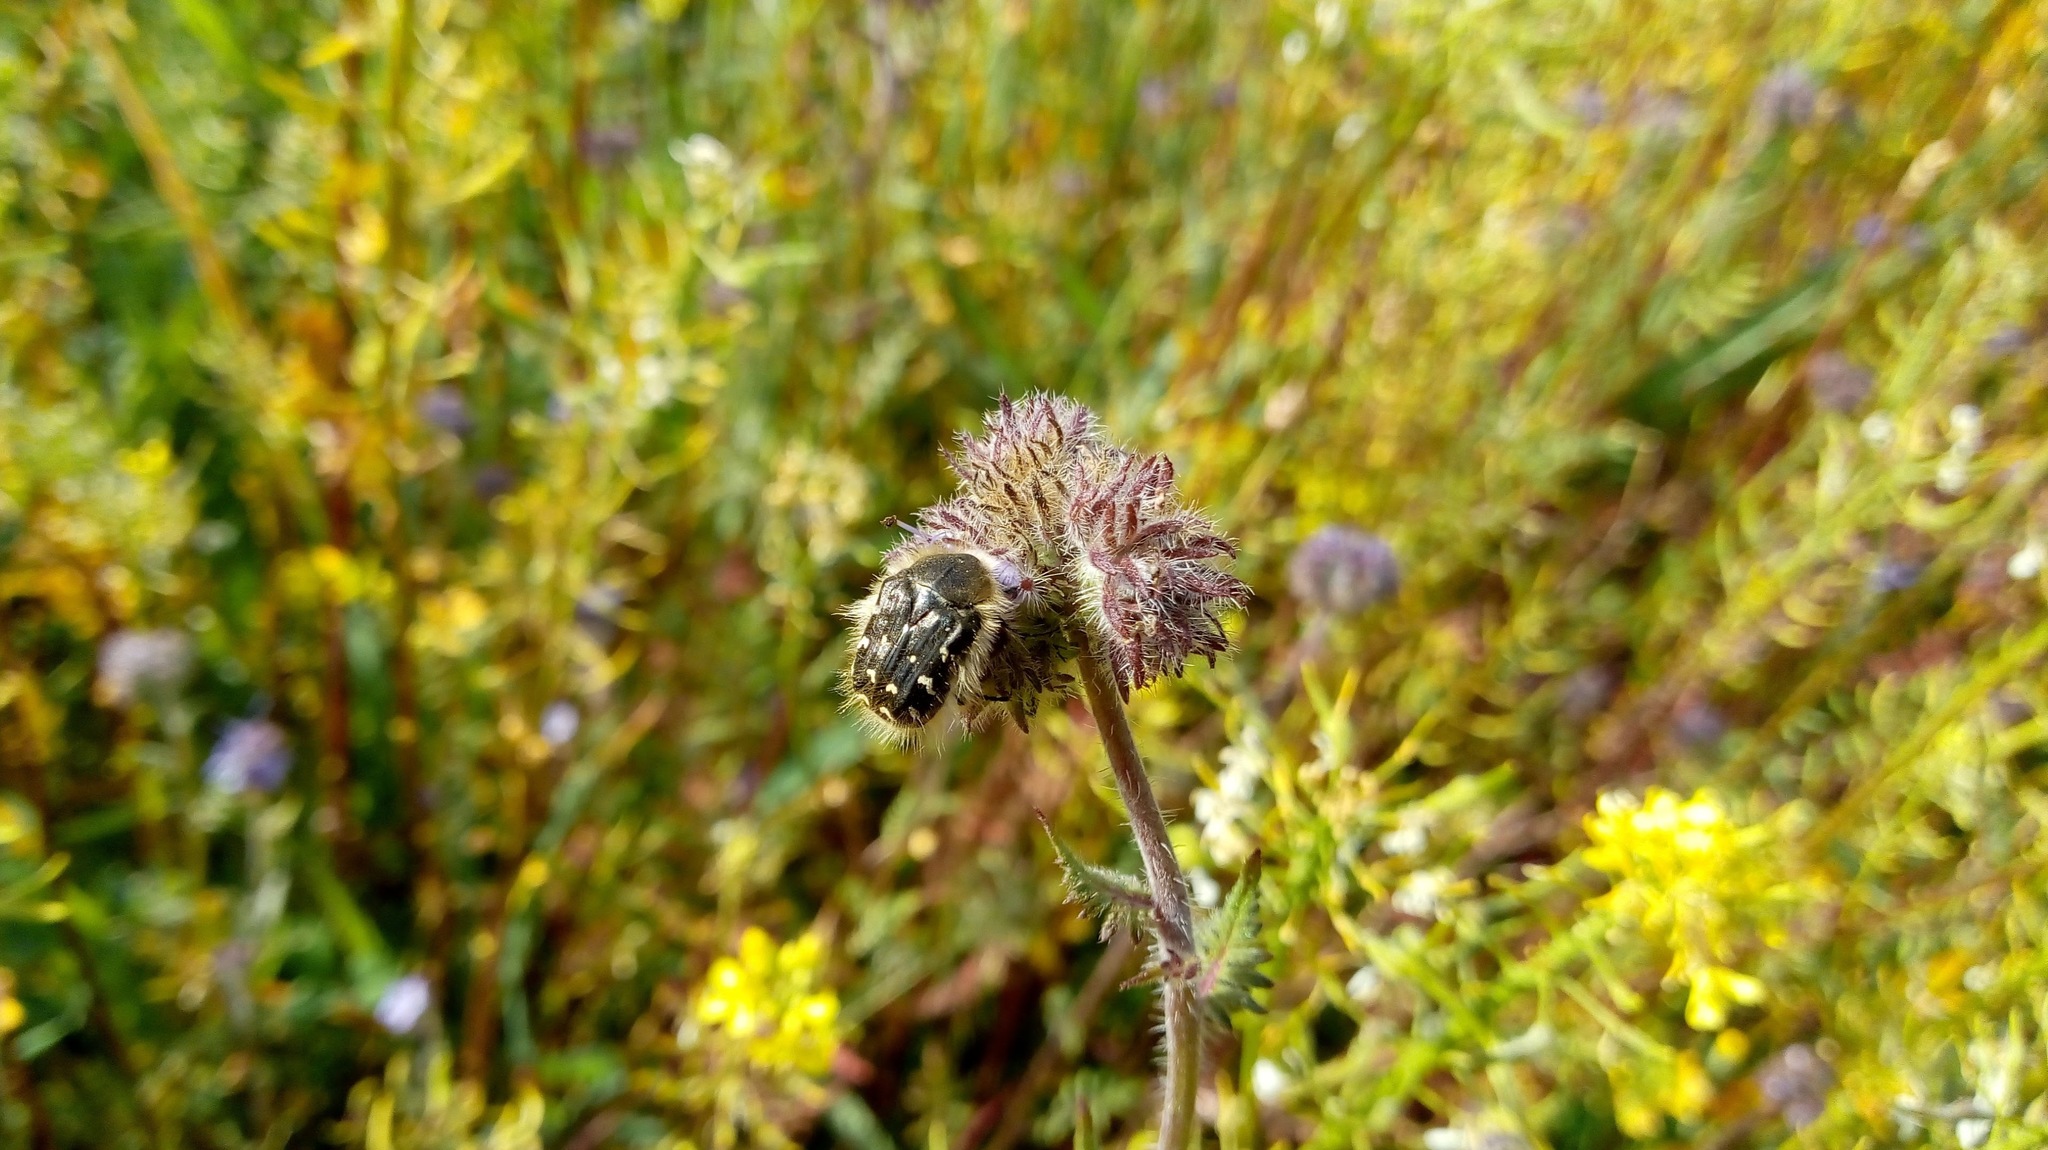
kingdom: Animalia
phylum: Arthropoda
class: Insecta
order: Coleoptera
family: Scarabaeidae
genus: Tropinota
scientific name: Tropinota hirta
